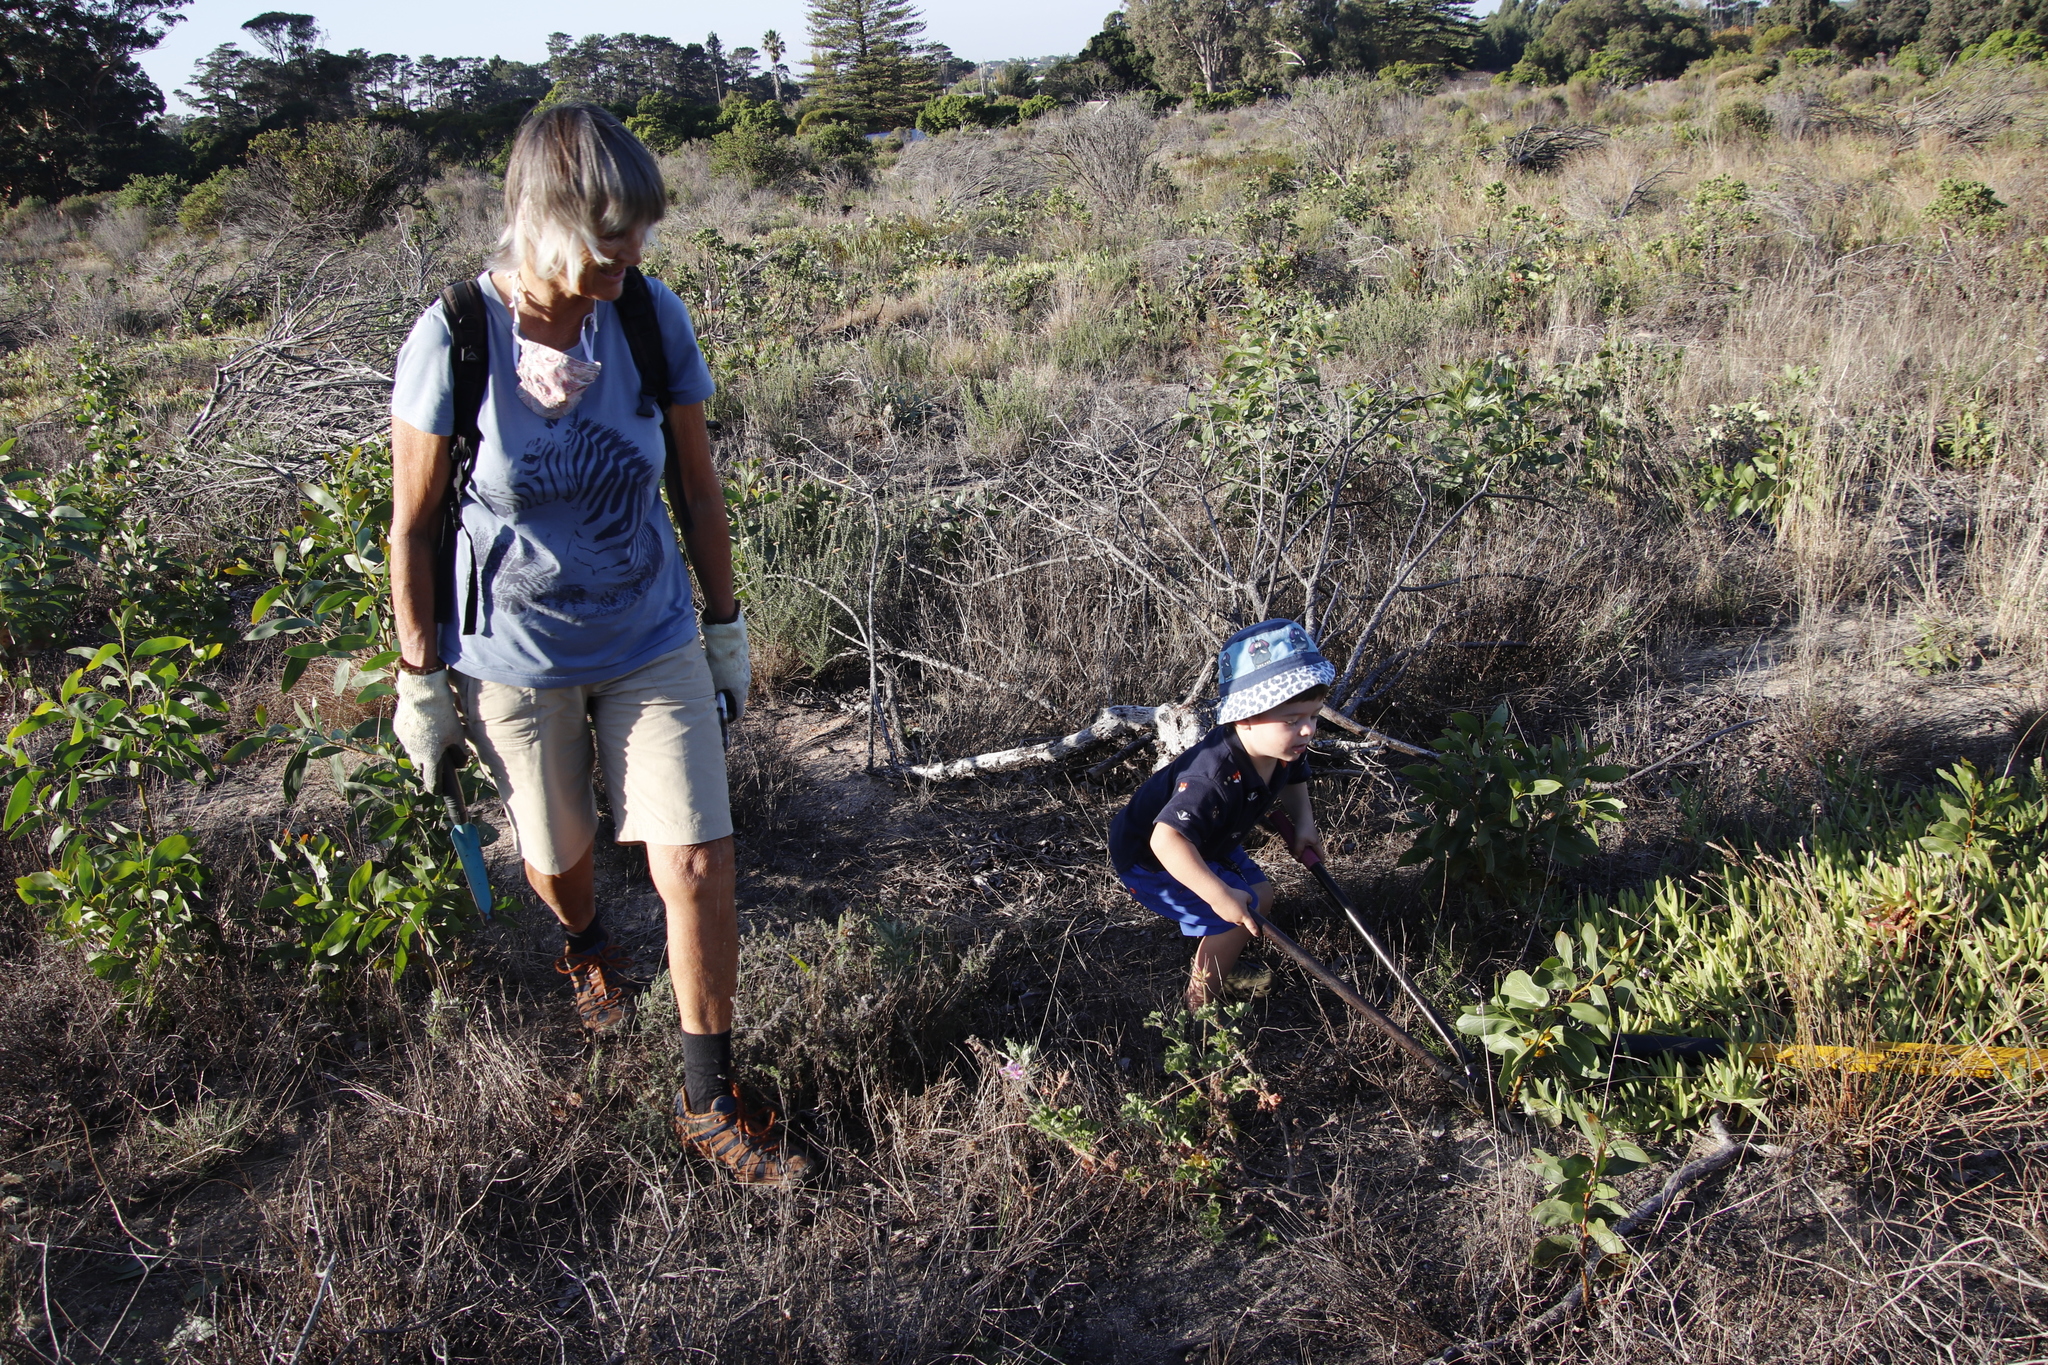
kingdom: Plantae
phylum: Tracheophyta
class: Magnoliopsida
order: Fabales
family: Fabaceae
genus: Acacia
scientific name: Acacia pycnantha
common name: Golden wattle
